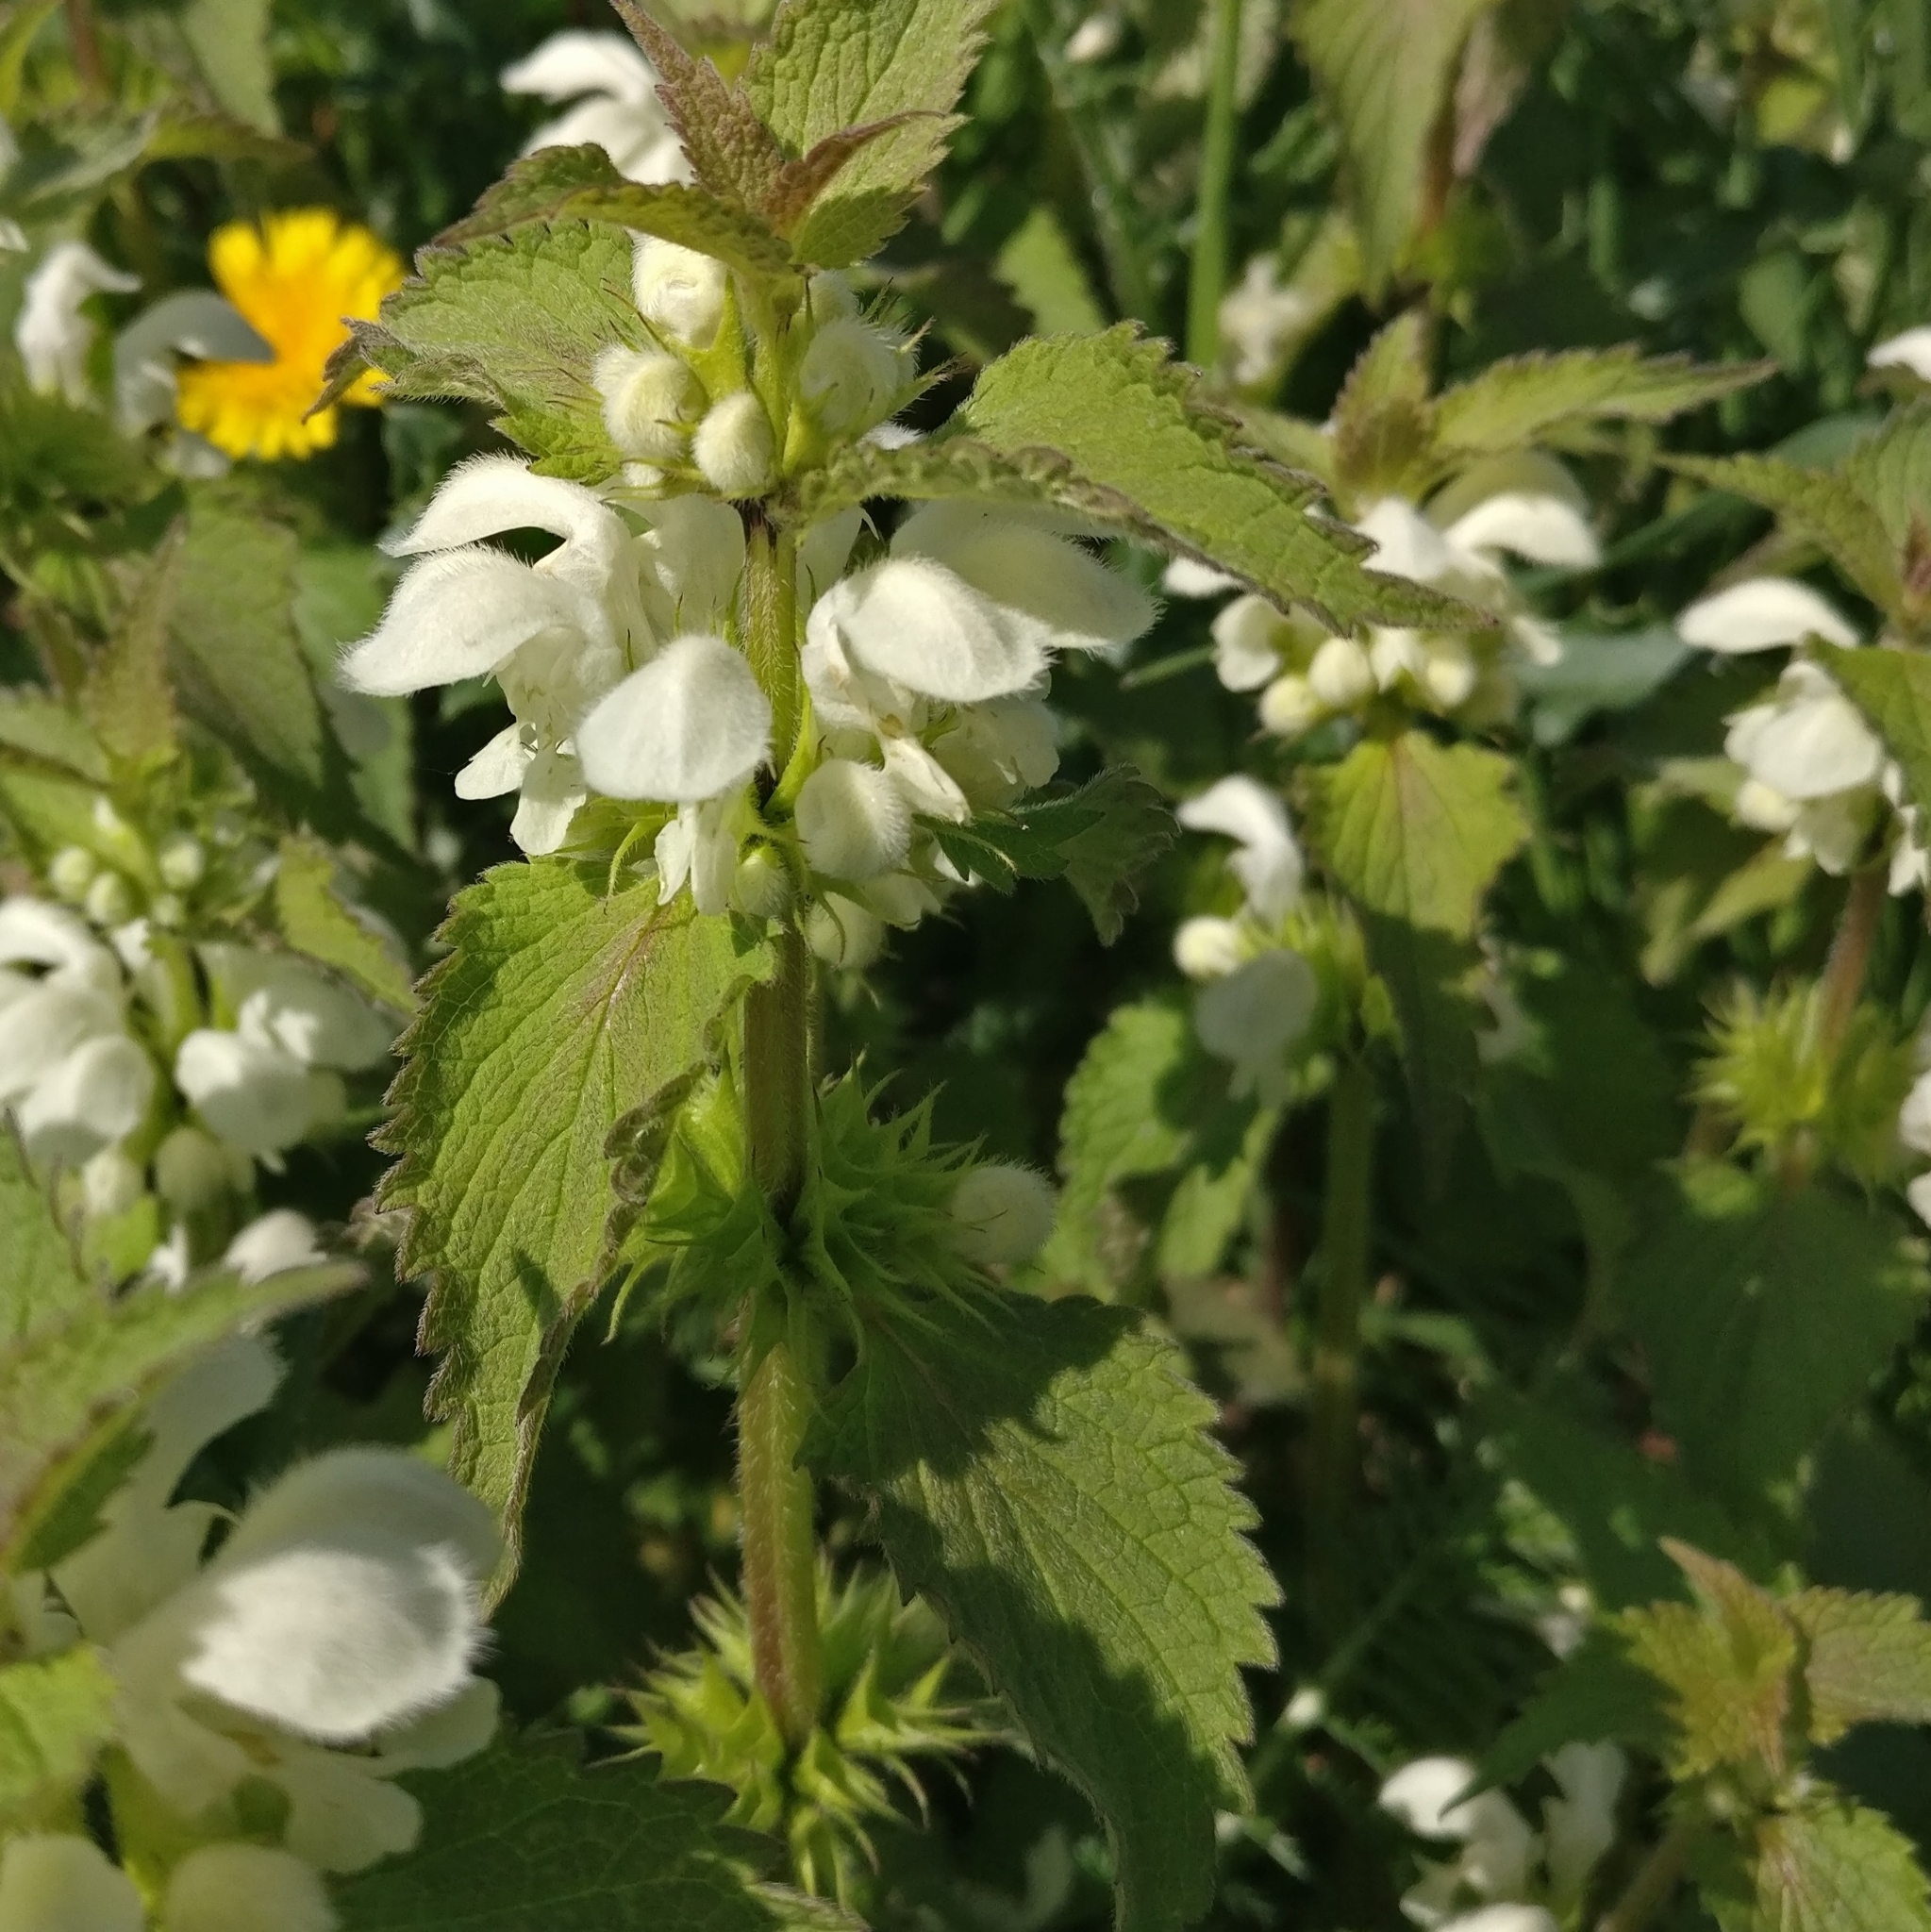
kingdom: Plantae
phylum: Tracheophyta
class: Magnoliopsida
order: Lamiales
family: Lamiaceae
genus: Lamium
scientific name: Lamium album
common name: White dead-nettle
